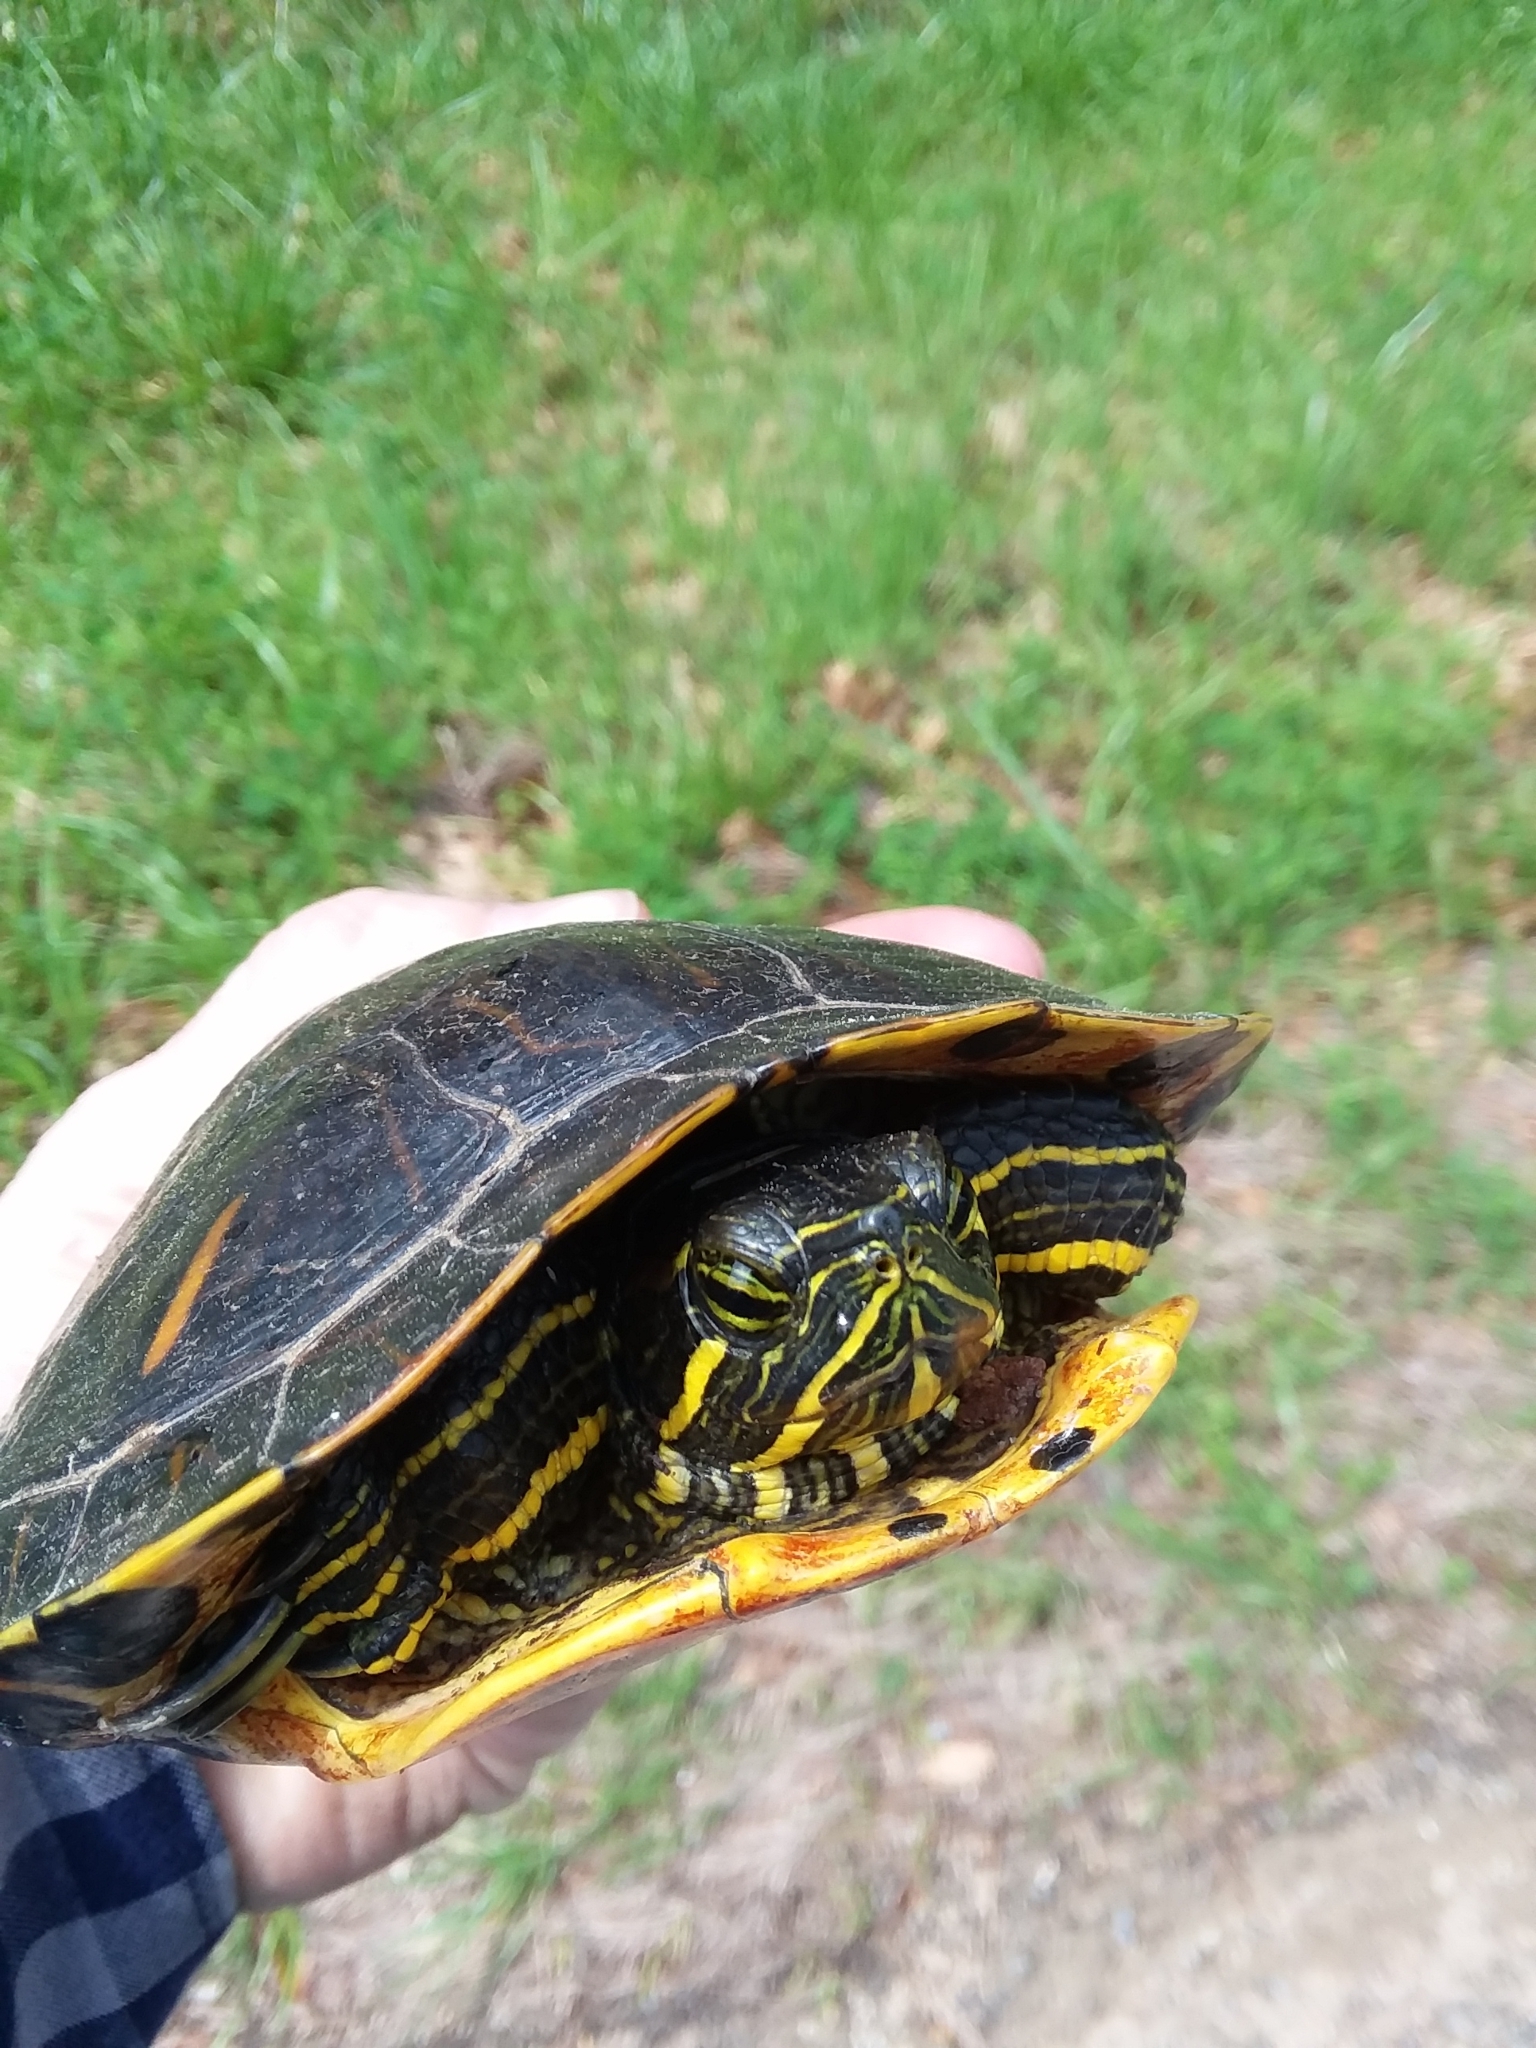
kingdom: Animalia
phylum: Chordata
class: Testudines
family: Emydidae
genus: Trachemys
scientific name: Trachemys scripta
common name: Slider
